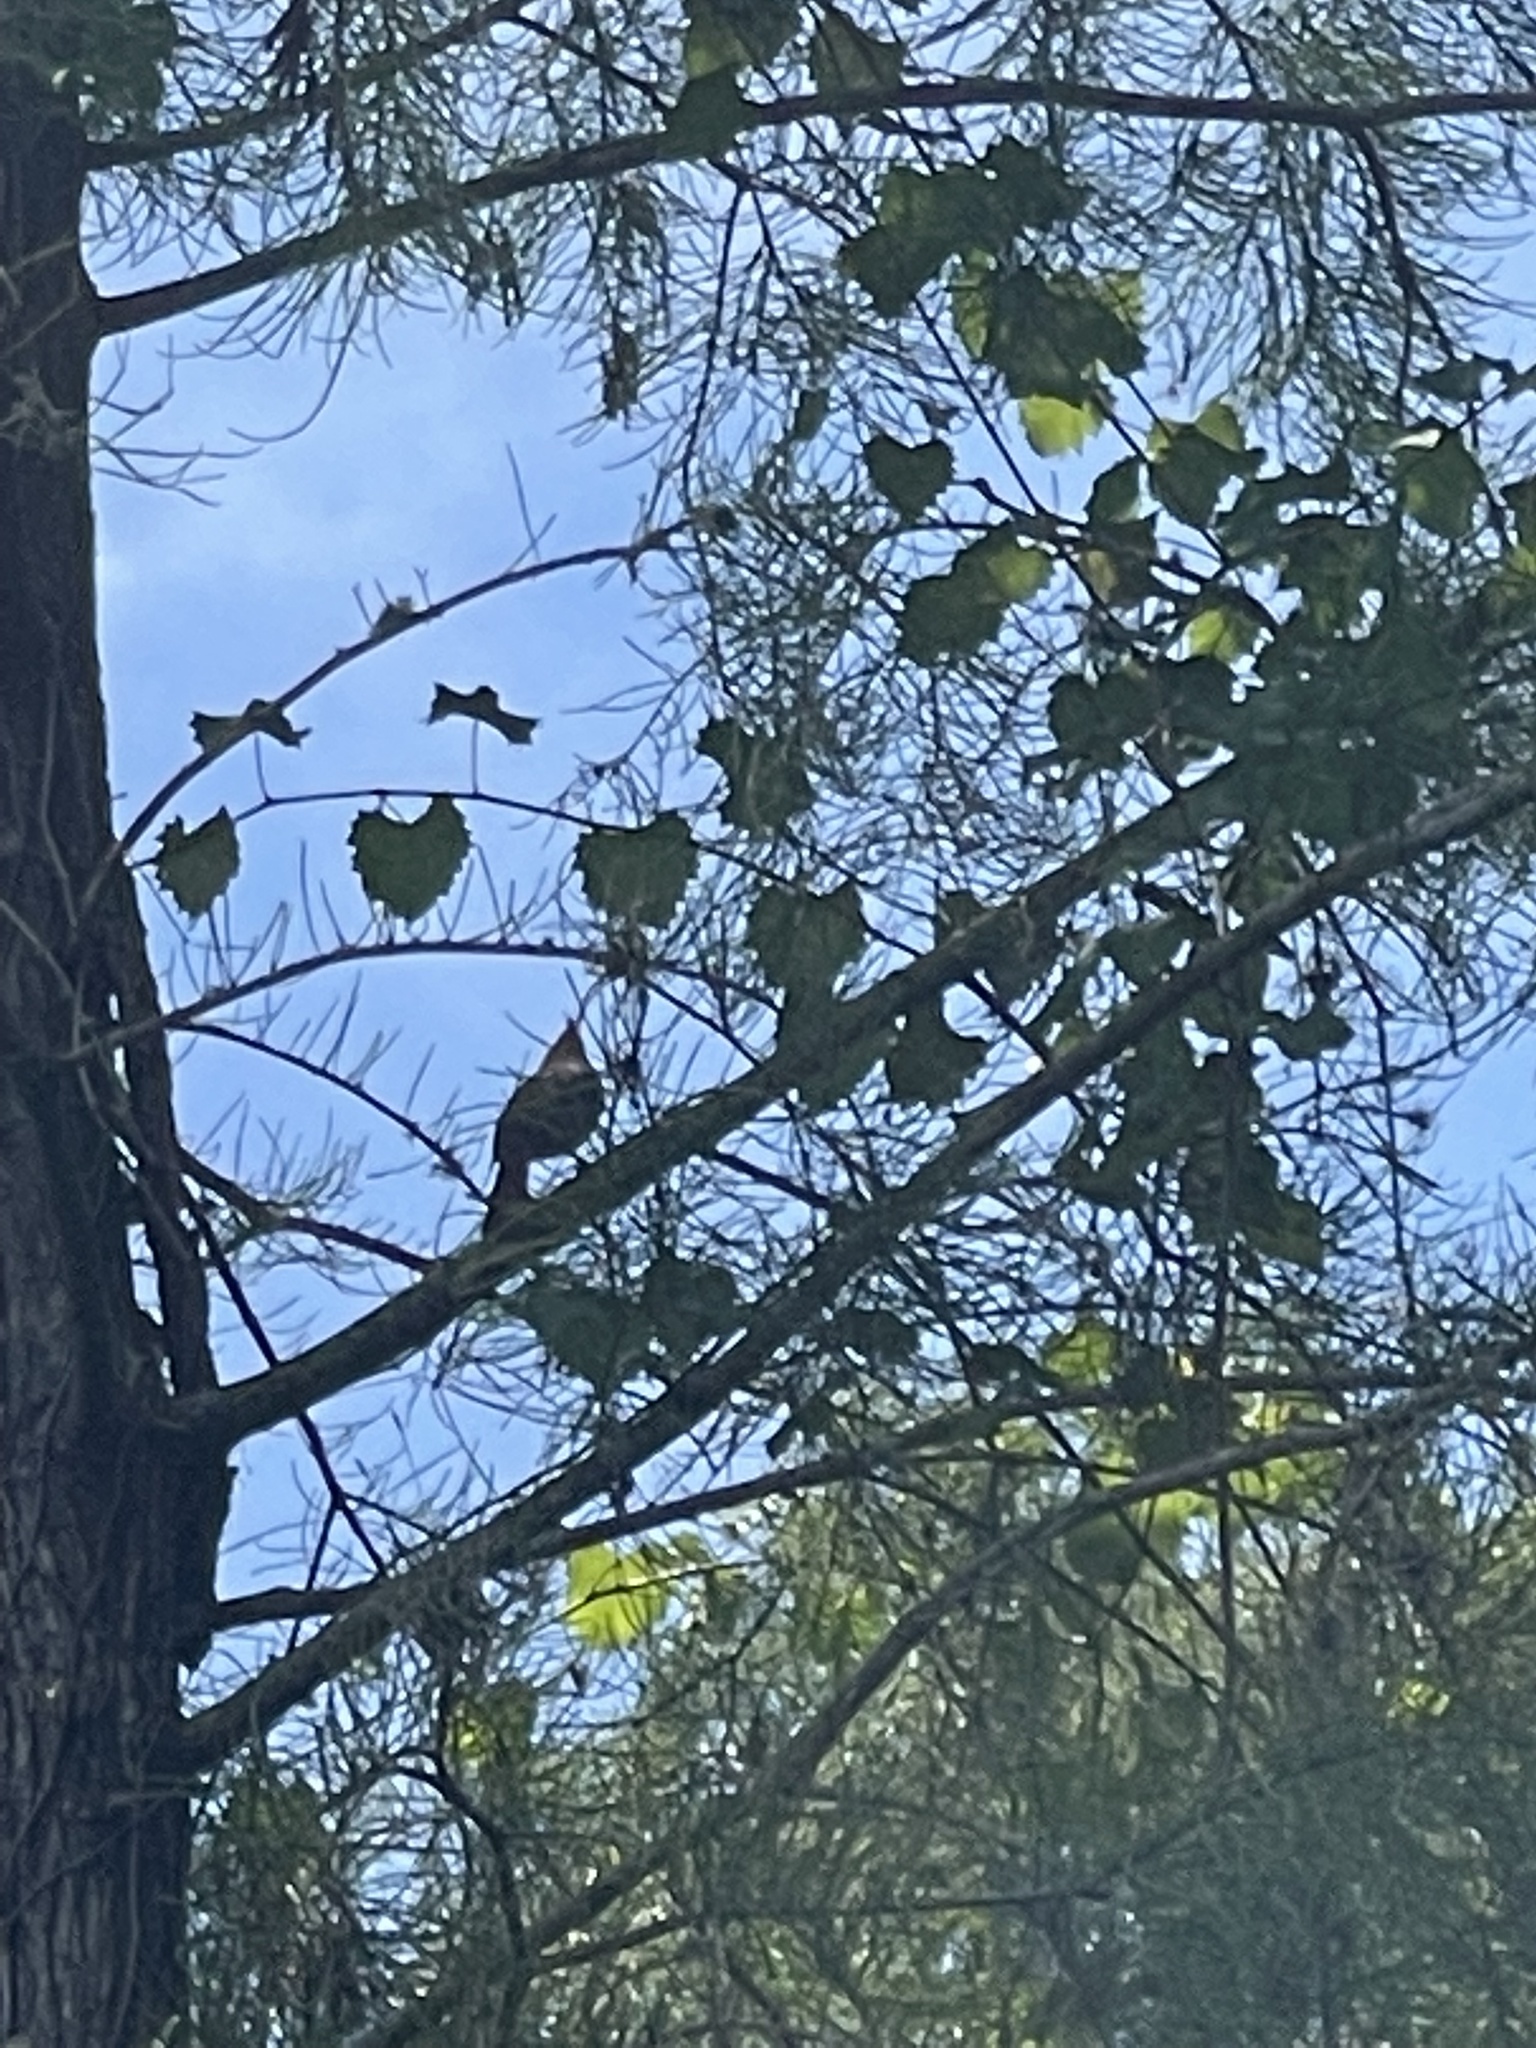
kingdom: Animalia
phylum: Chordata
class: Aves
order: Passeriformes
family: Cardinalidae
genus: Cardinalis
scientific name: Cardinalis cardinalis
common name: Northern cardinal
